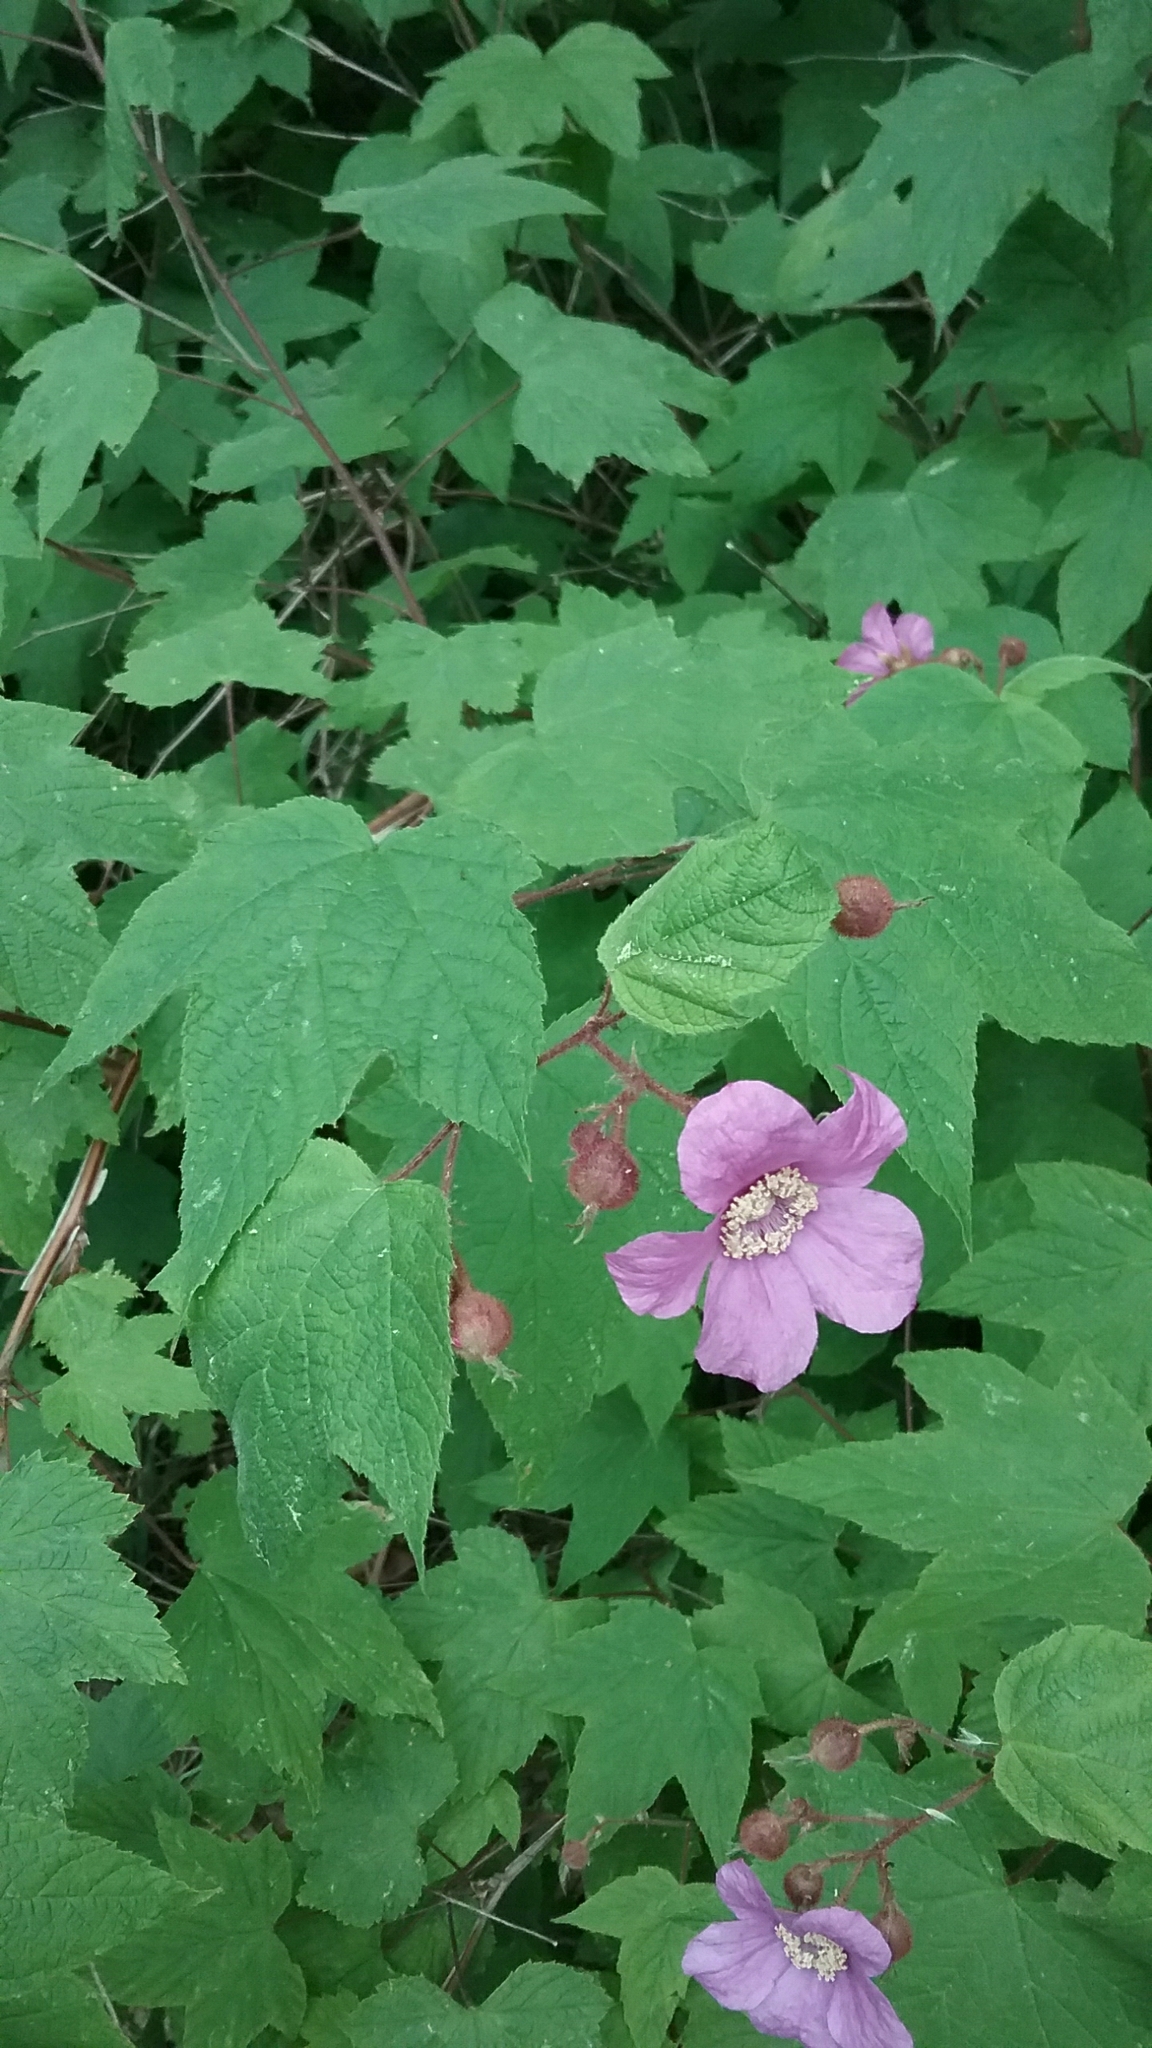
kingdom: Plantae
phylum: Tracheophyta
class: Magnoliopsida
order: Rosales
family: Rosaceae
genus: Rubus
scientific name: Rubus odoratus
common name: Purple-flowered raspberry
